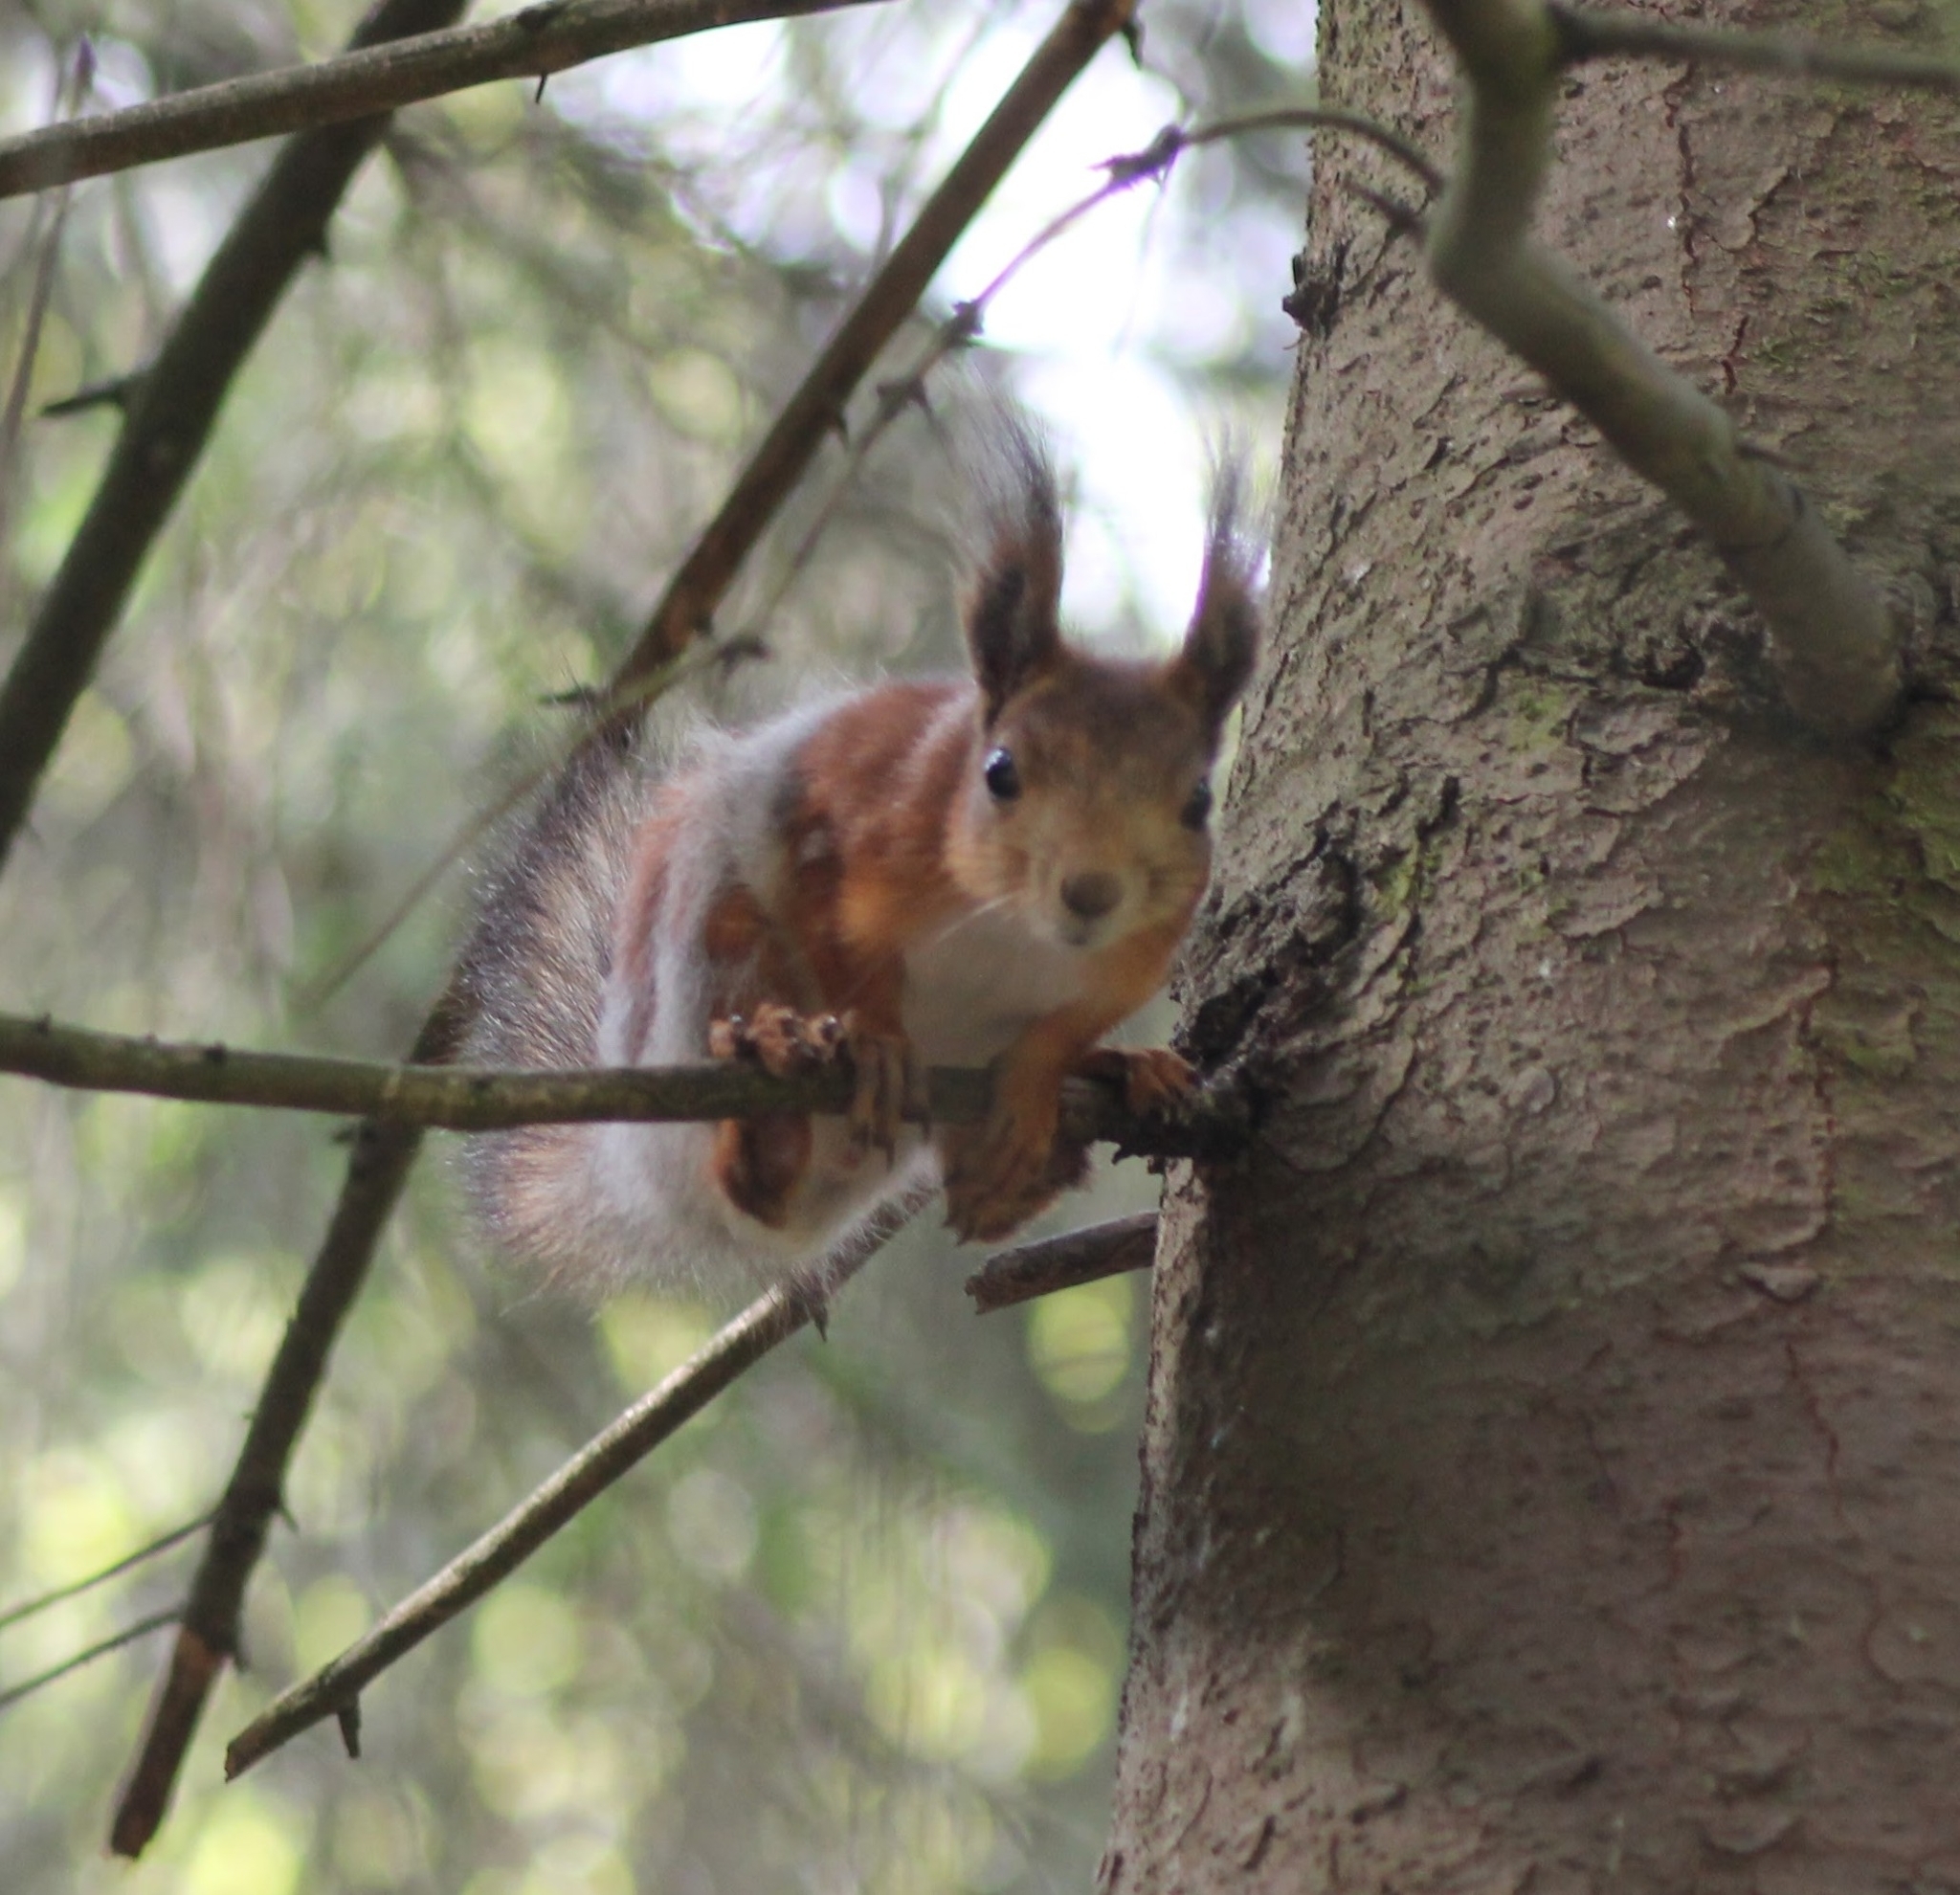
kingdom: Animalia
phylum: Chordata
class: Mammalia
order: Rodentia
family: Sciuridae
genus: Sciurus
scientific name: Sciurus vulgaris
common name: Eurasian red squirrel
